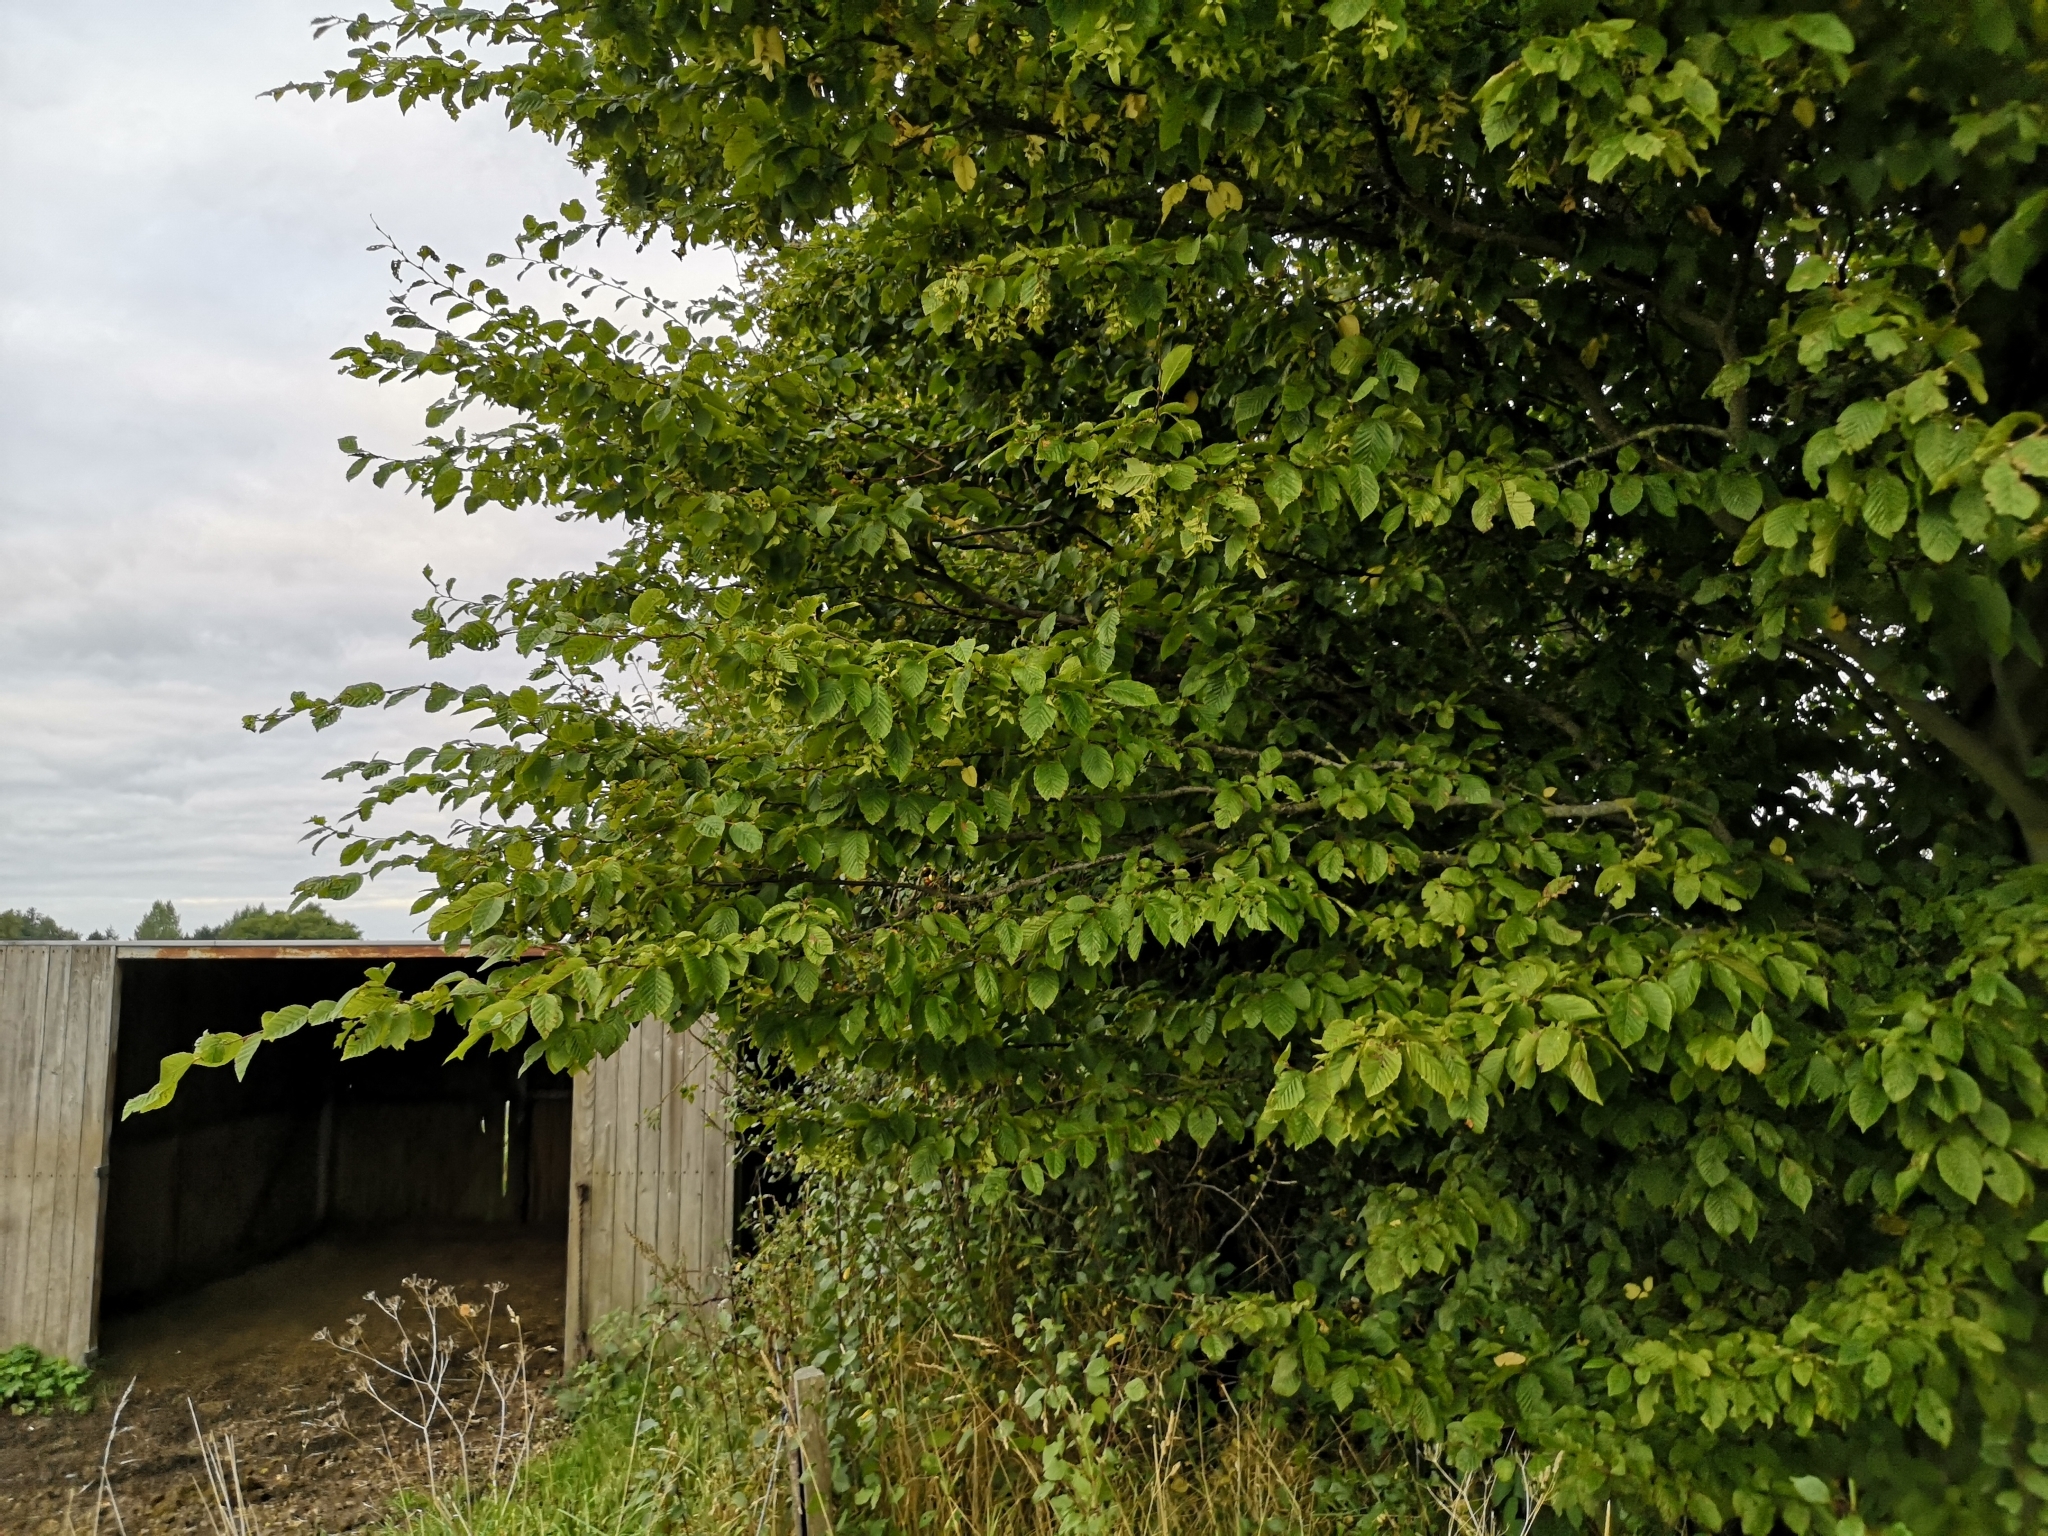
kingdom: Plantae
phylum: Tracheophyta
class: Magnoliopsida
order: Fagales
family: Betulaceae
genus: Carpinus
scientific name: Carpinus betulus
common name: Hornbeam
